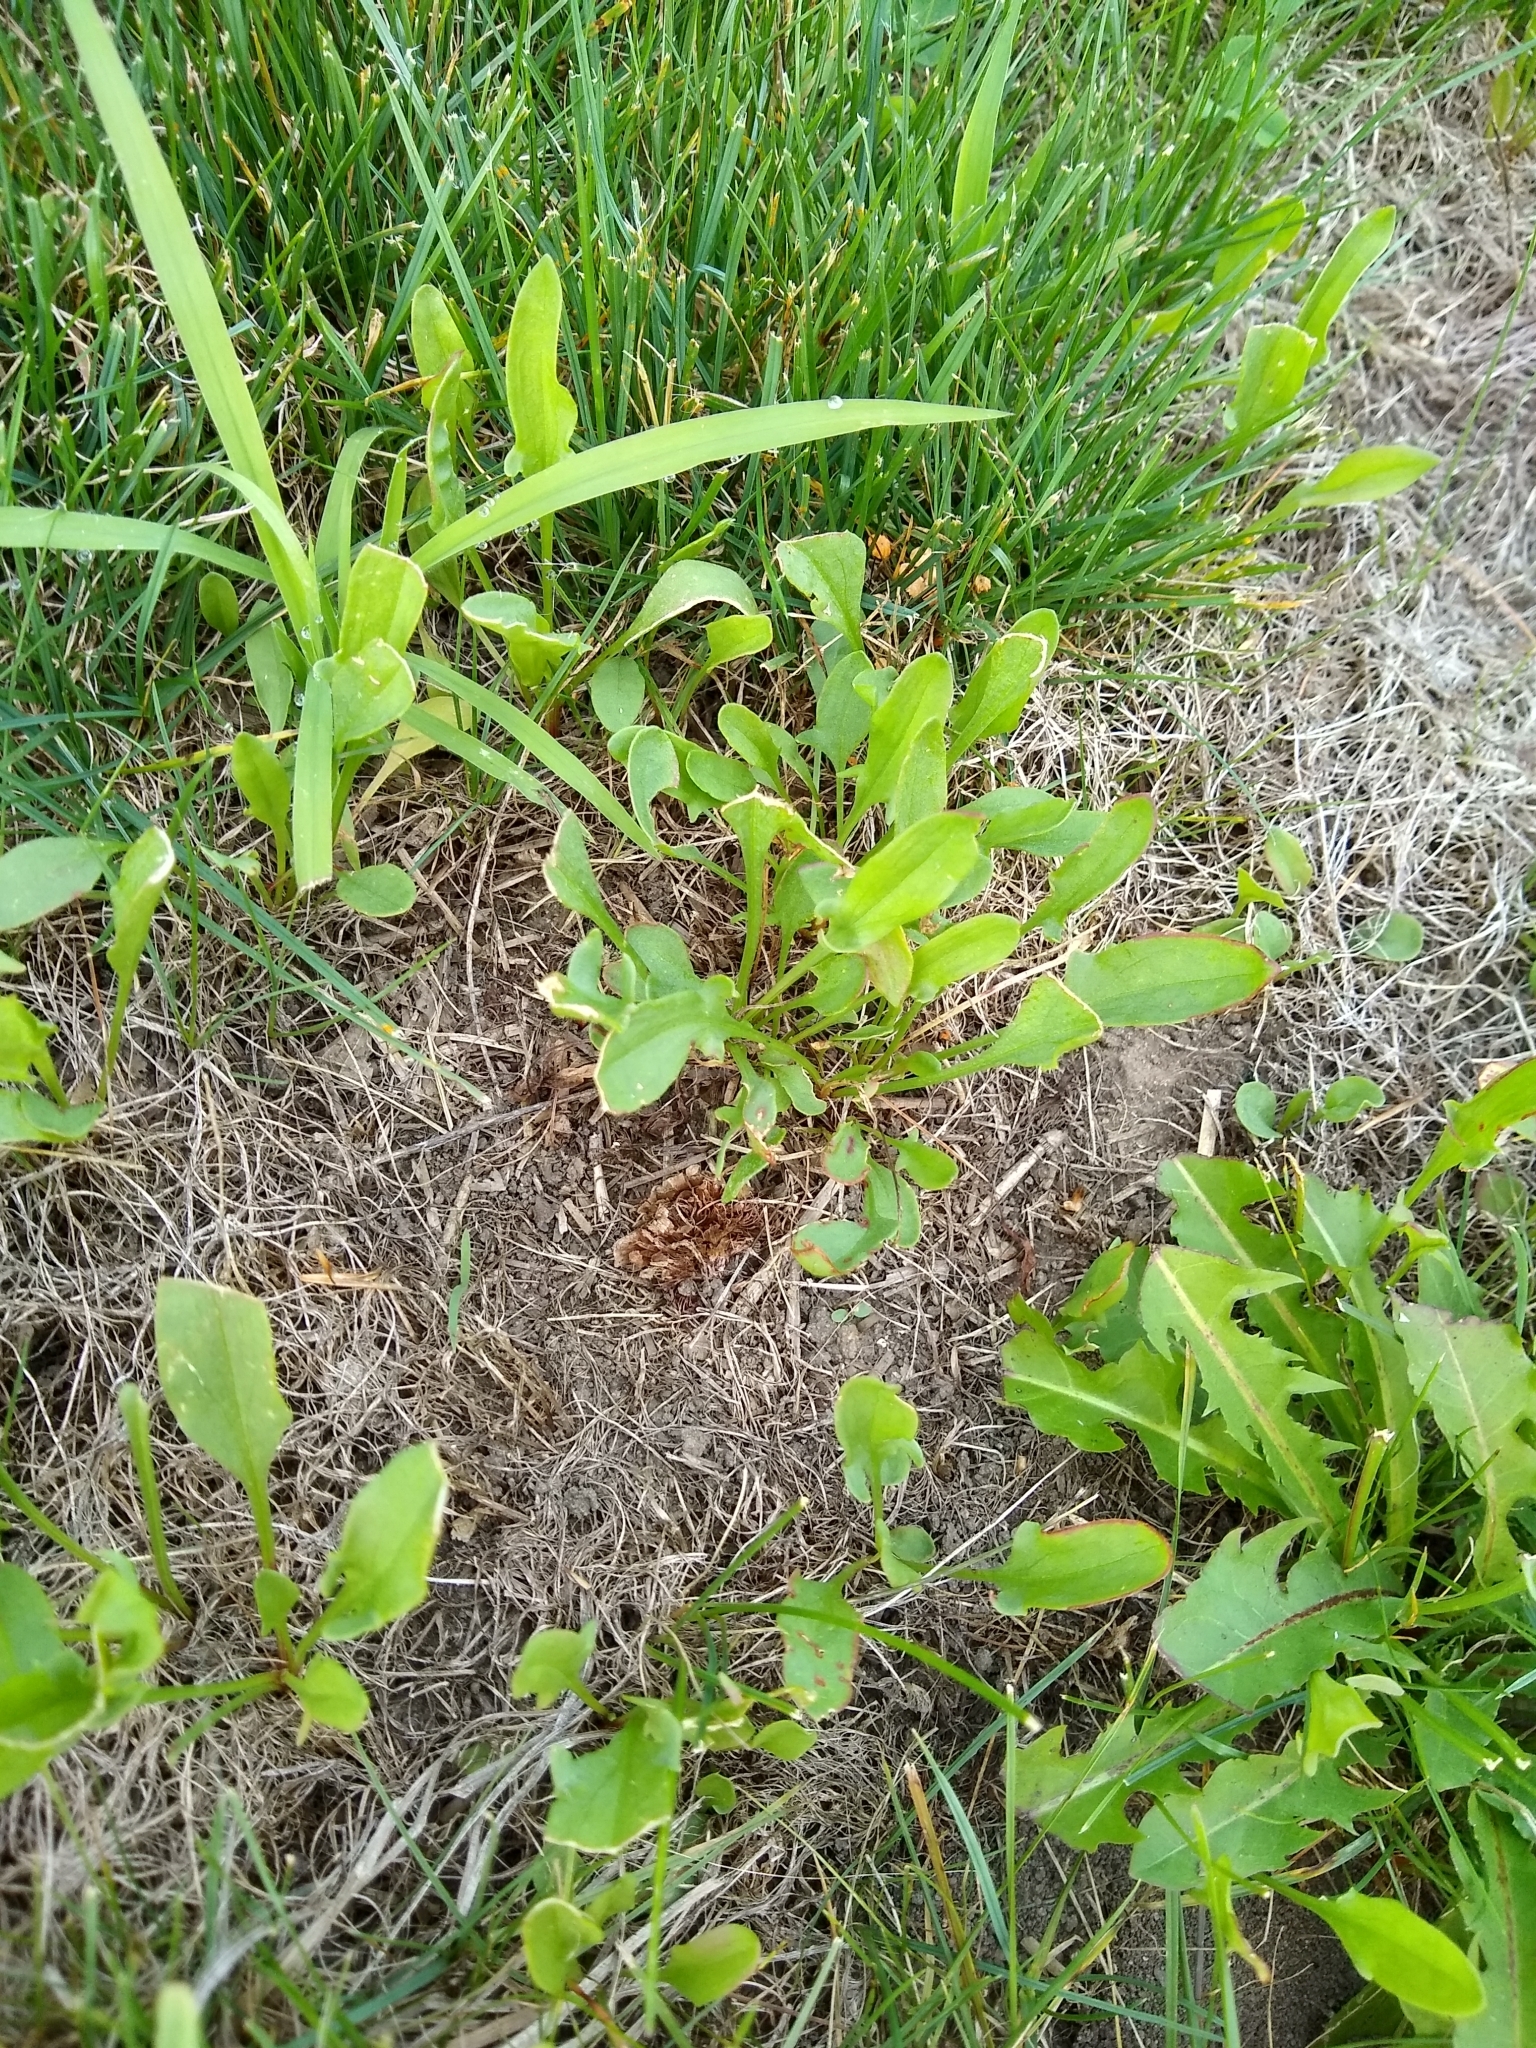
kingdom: Plantae
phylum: Tracheophyta
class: Magnoliopsida
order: Caryophyllales
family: Polygonaceae
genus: Rumex
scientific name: Rumex acetosella
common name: Common sheep sorrel
